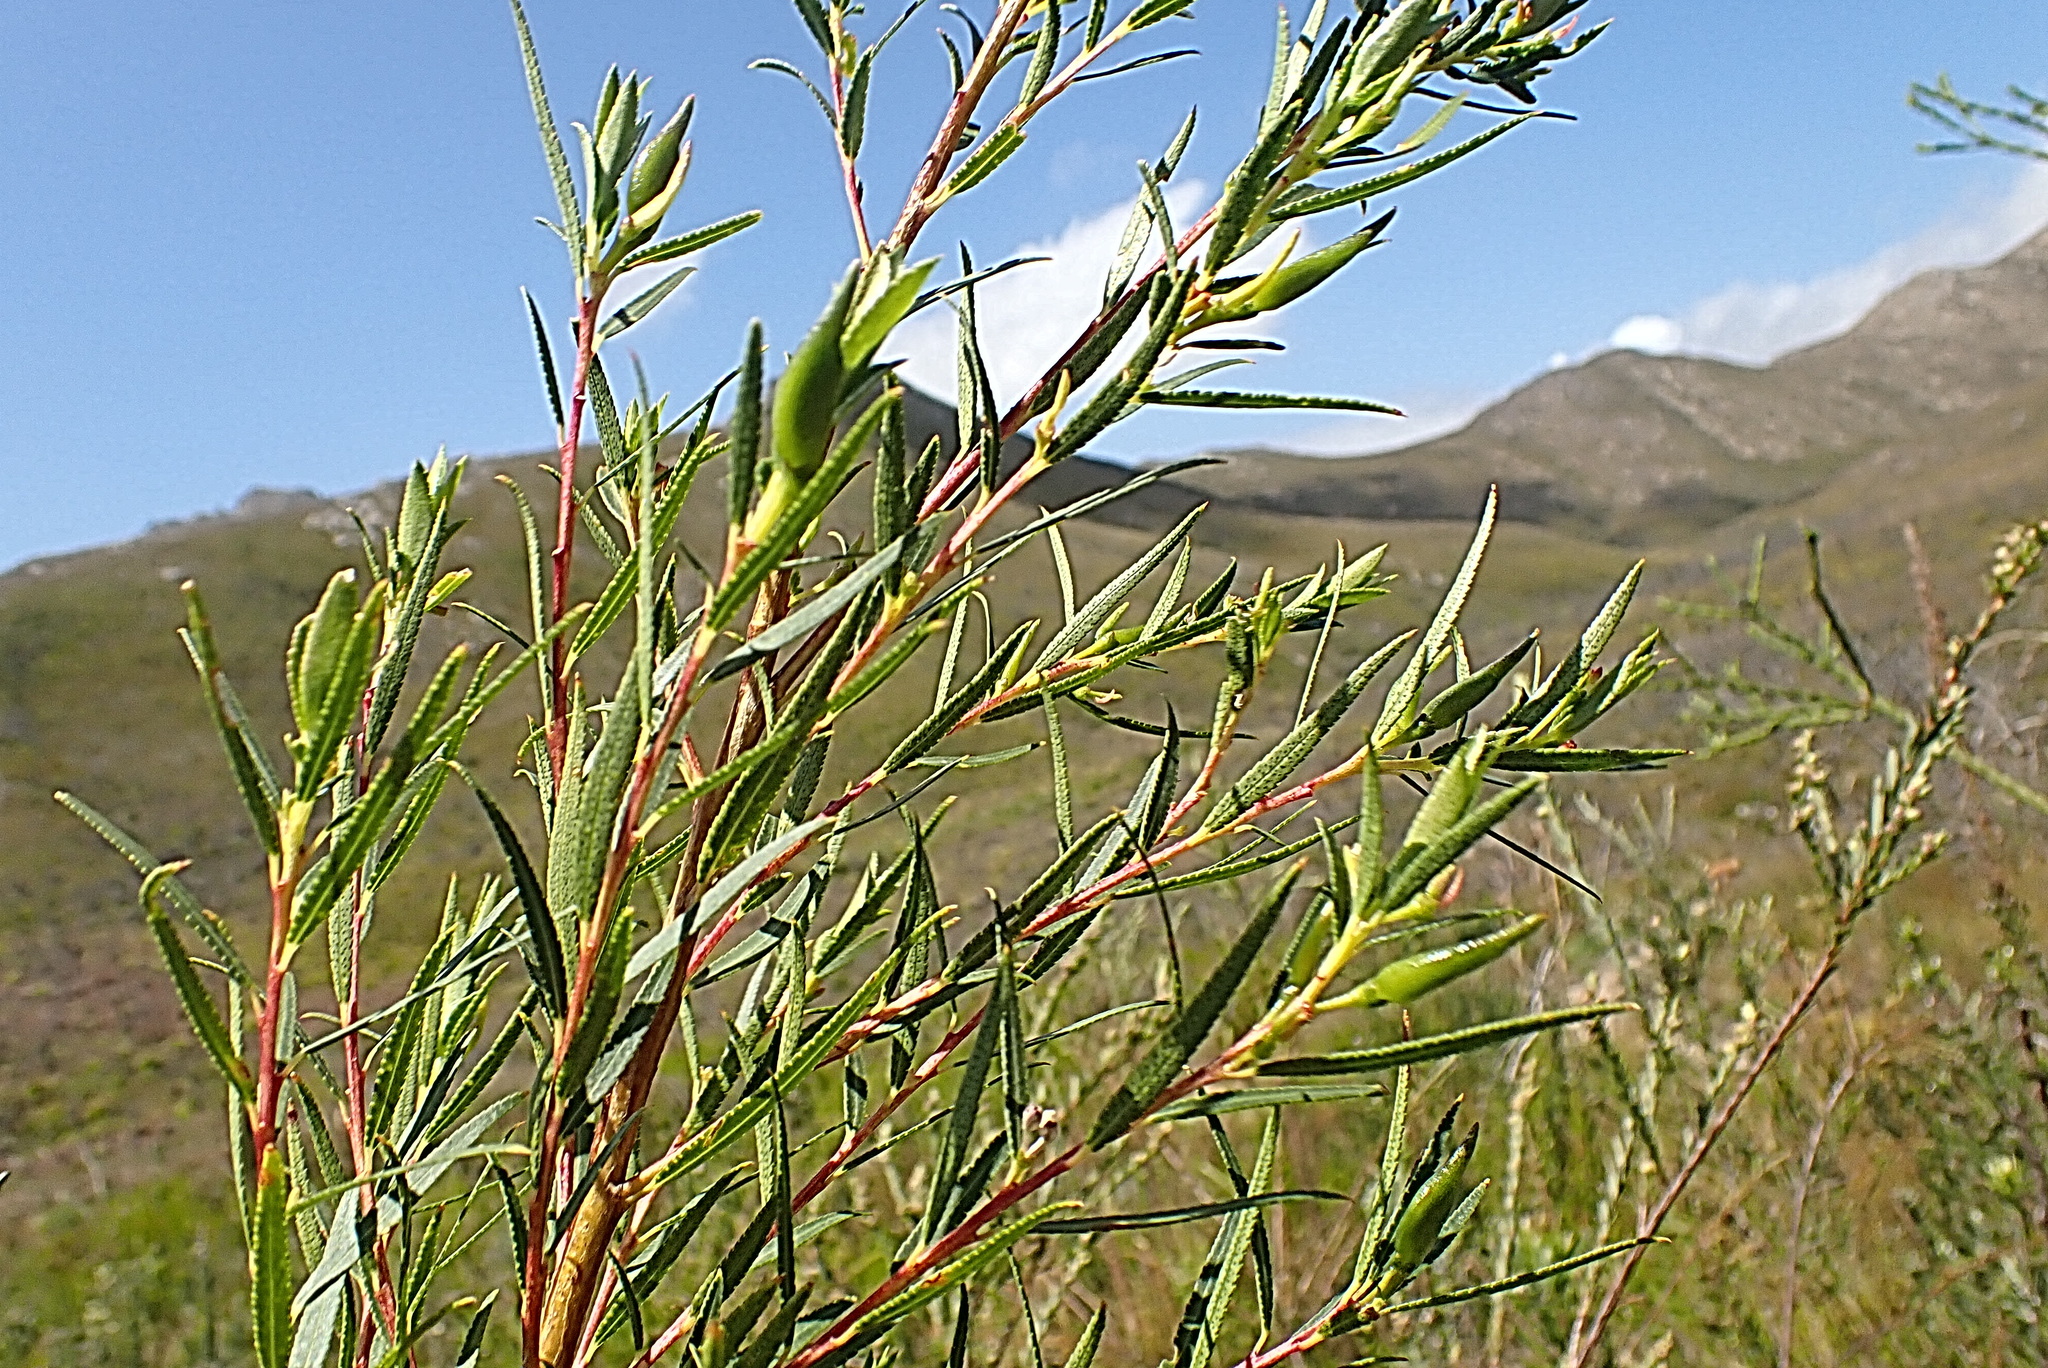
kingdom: Plantae
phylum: Tracheophyta
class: Magnoliopsida
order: Sapindales
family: Rutaceae
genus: Empleurum
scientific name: Empleurum unicapsulare
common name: False buchu
